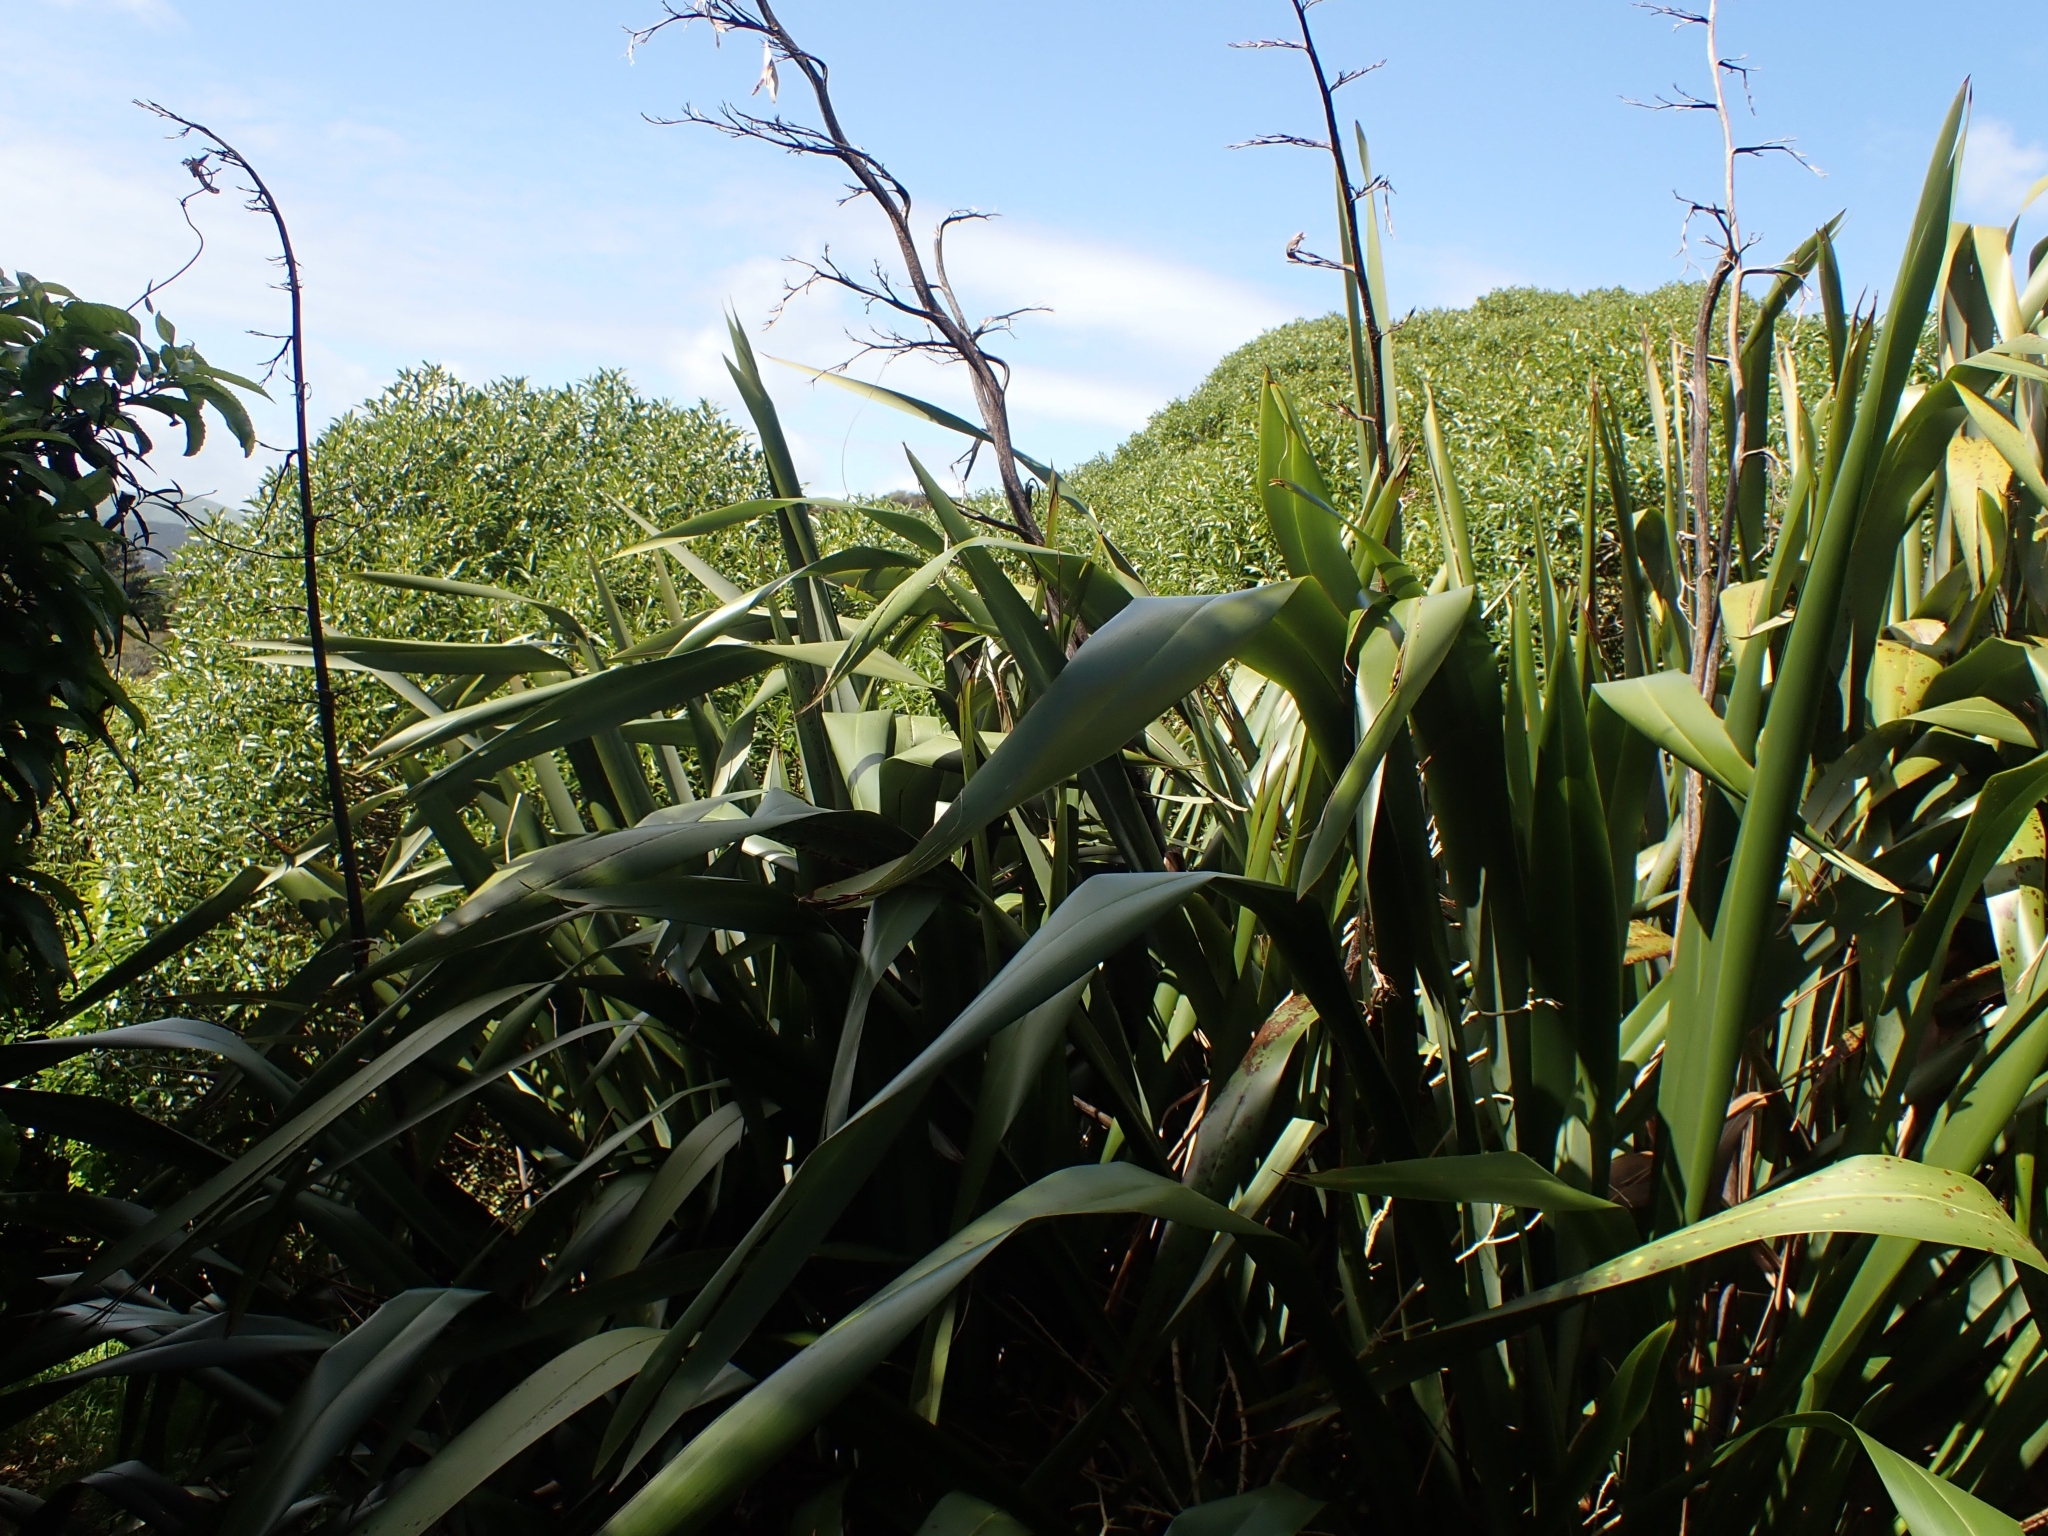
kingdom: Plantae
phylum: Tracheophyta
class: Liliopsida
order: Asparagales
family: Asphodelaceae
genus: Phormium
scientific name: Phormium tenax
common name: New zealand flax
